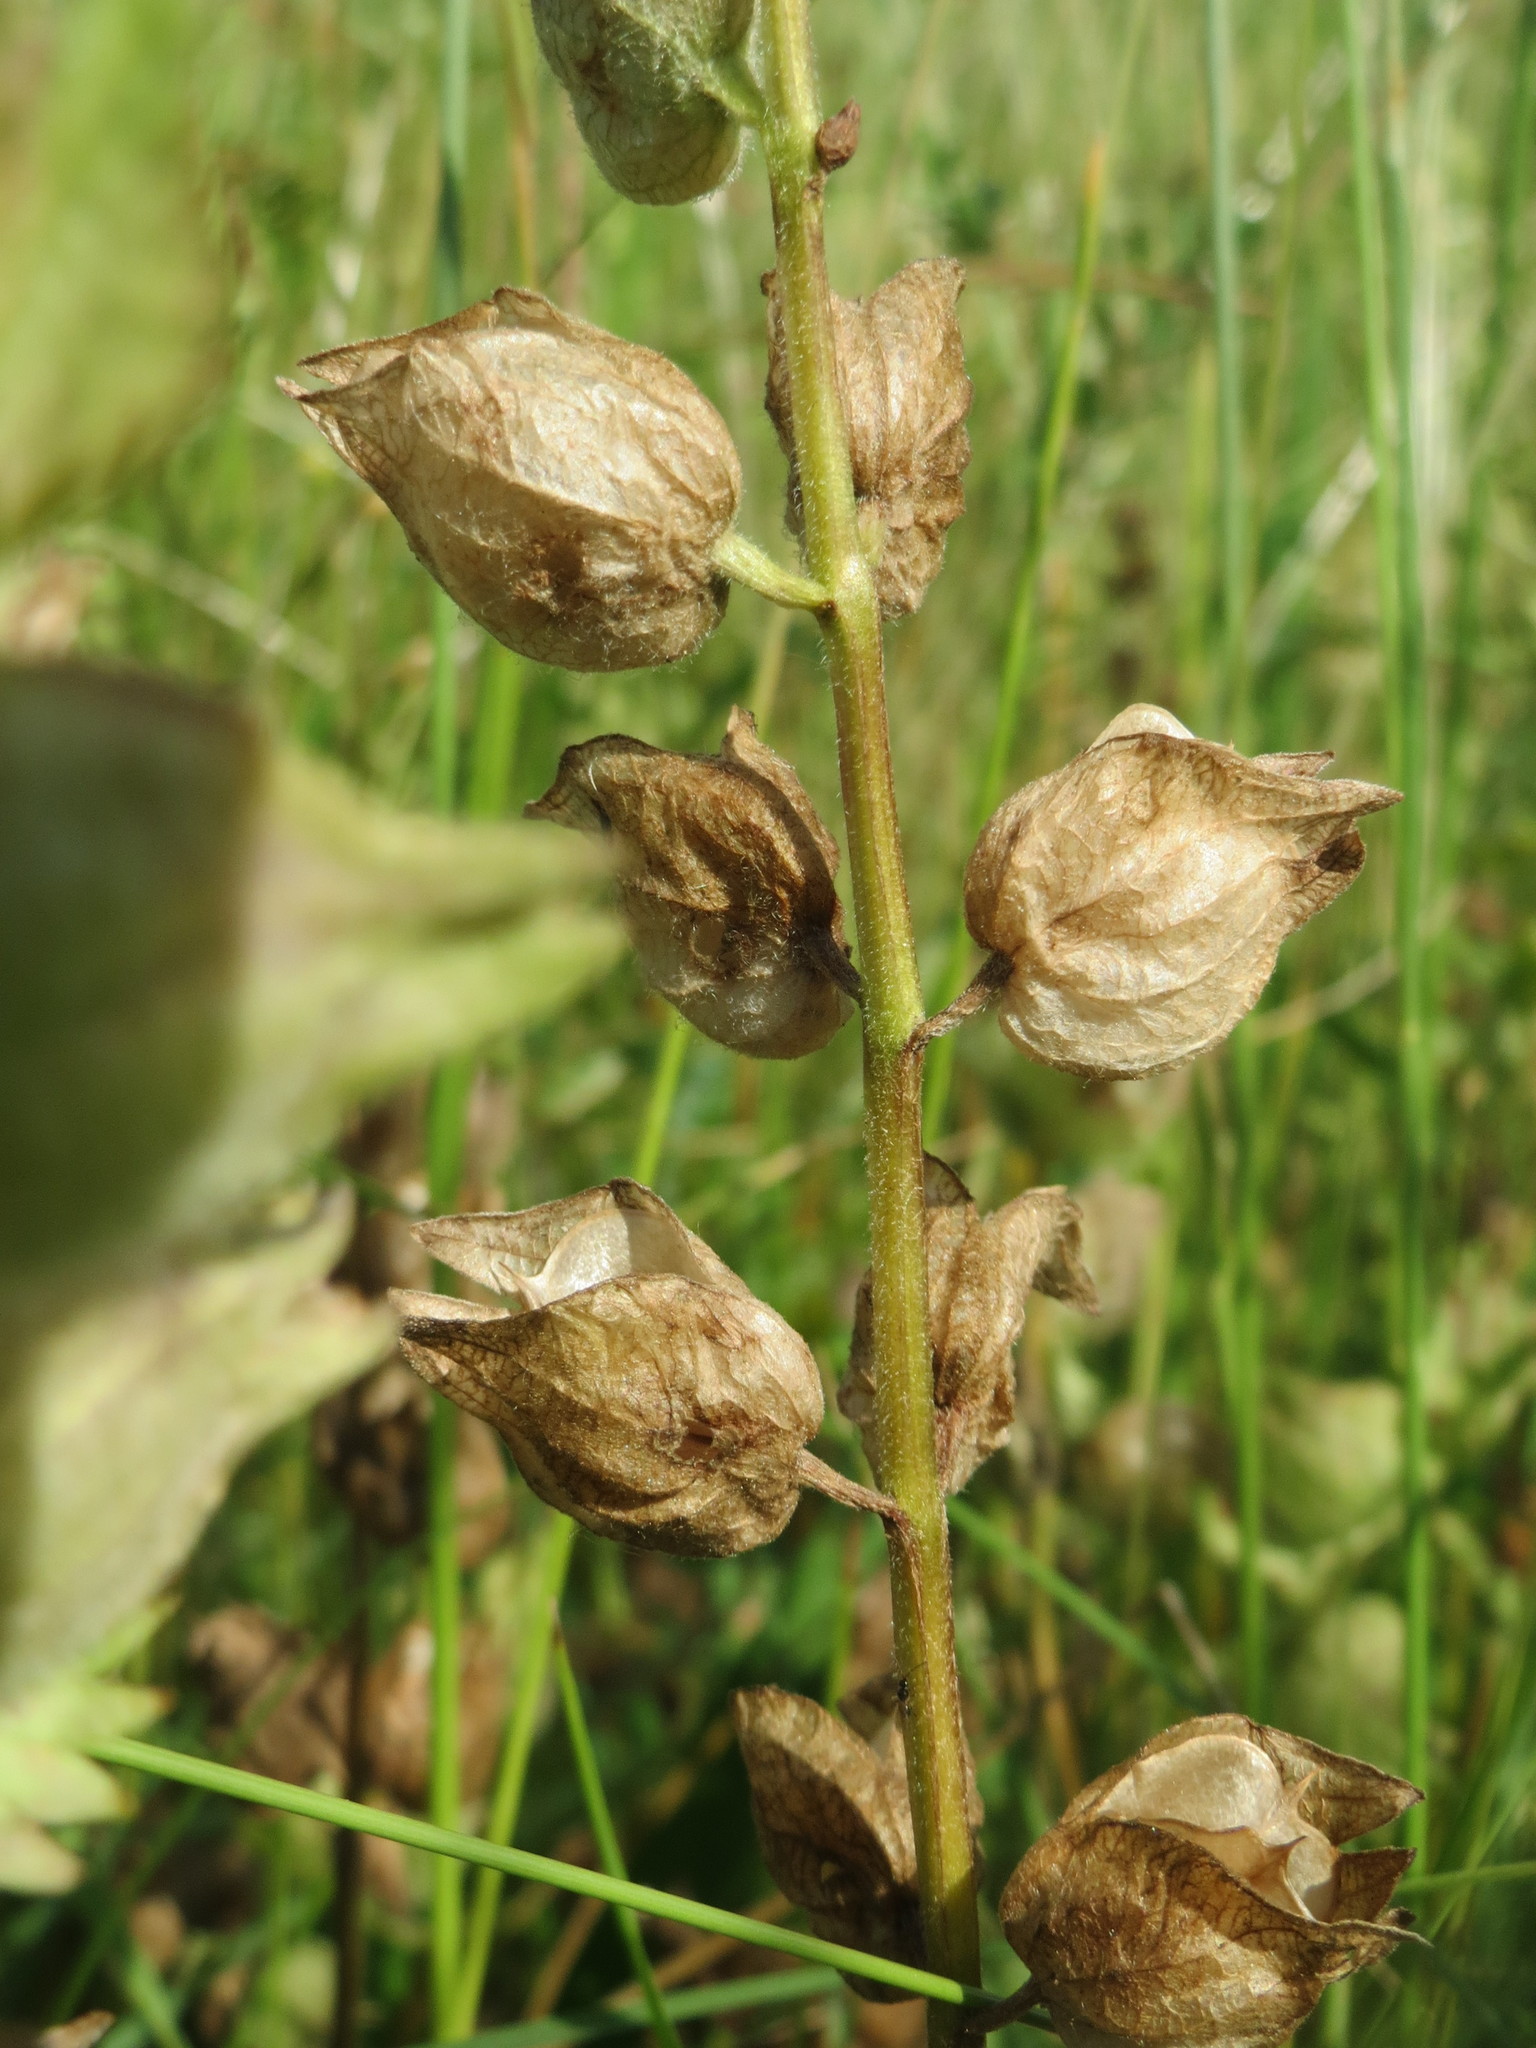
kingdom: Plantae
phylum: Tracheophyta
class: Magnoliopsida
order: Lamiales
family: Orobanchaceae
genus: Rhinanthus
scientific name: Rhinanthus alectorolophus
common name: Greater yellow-rattle
